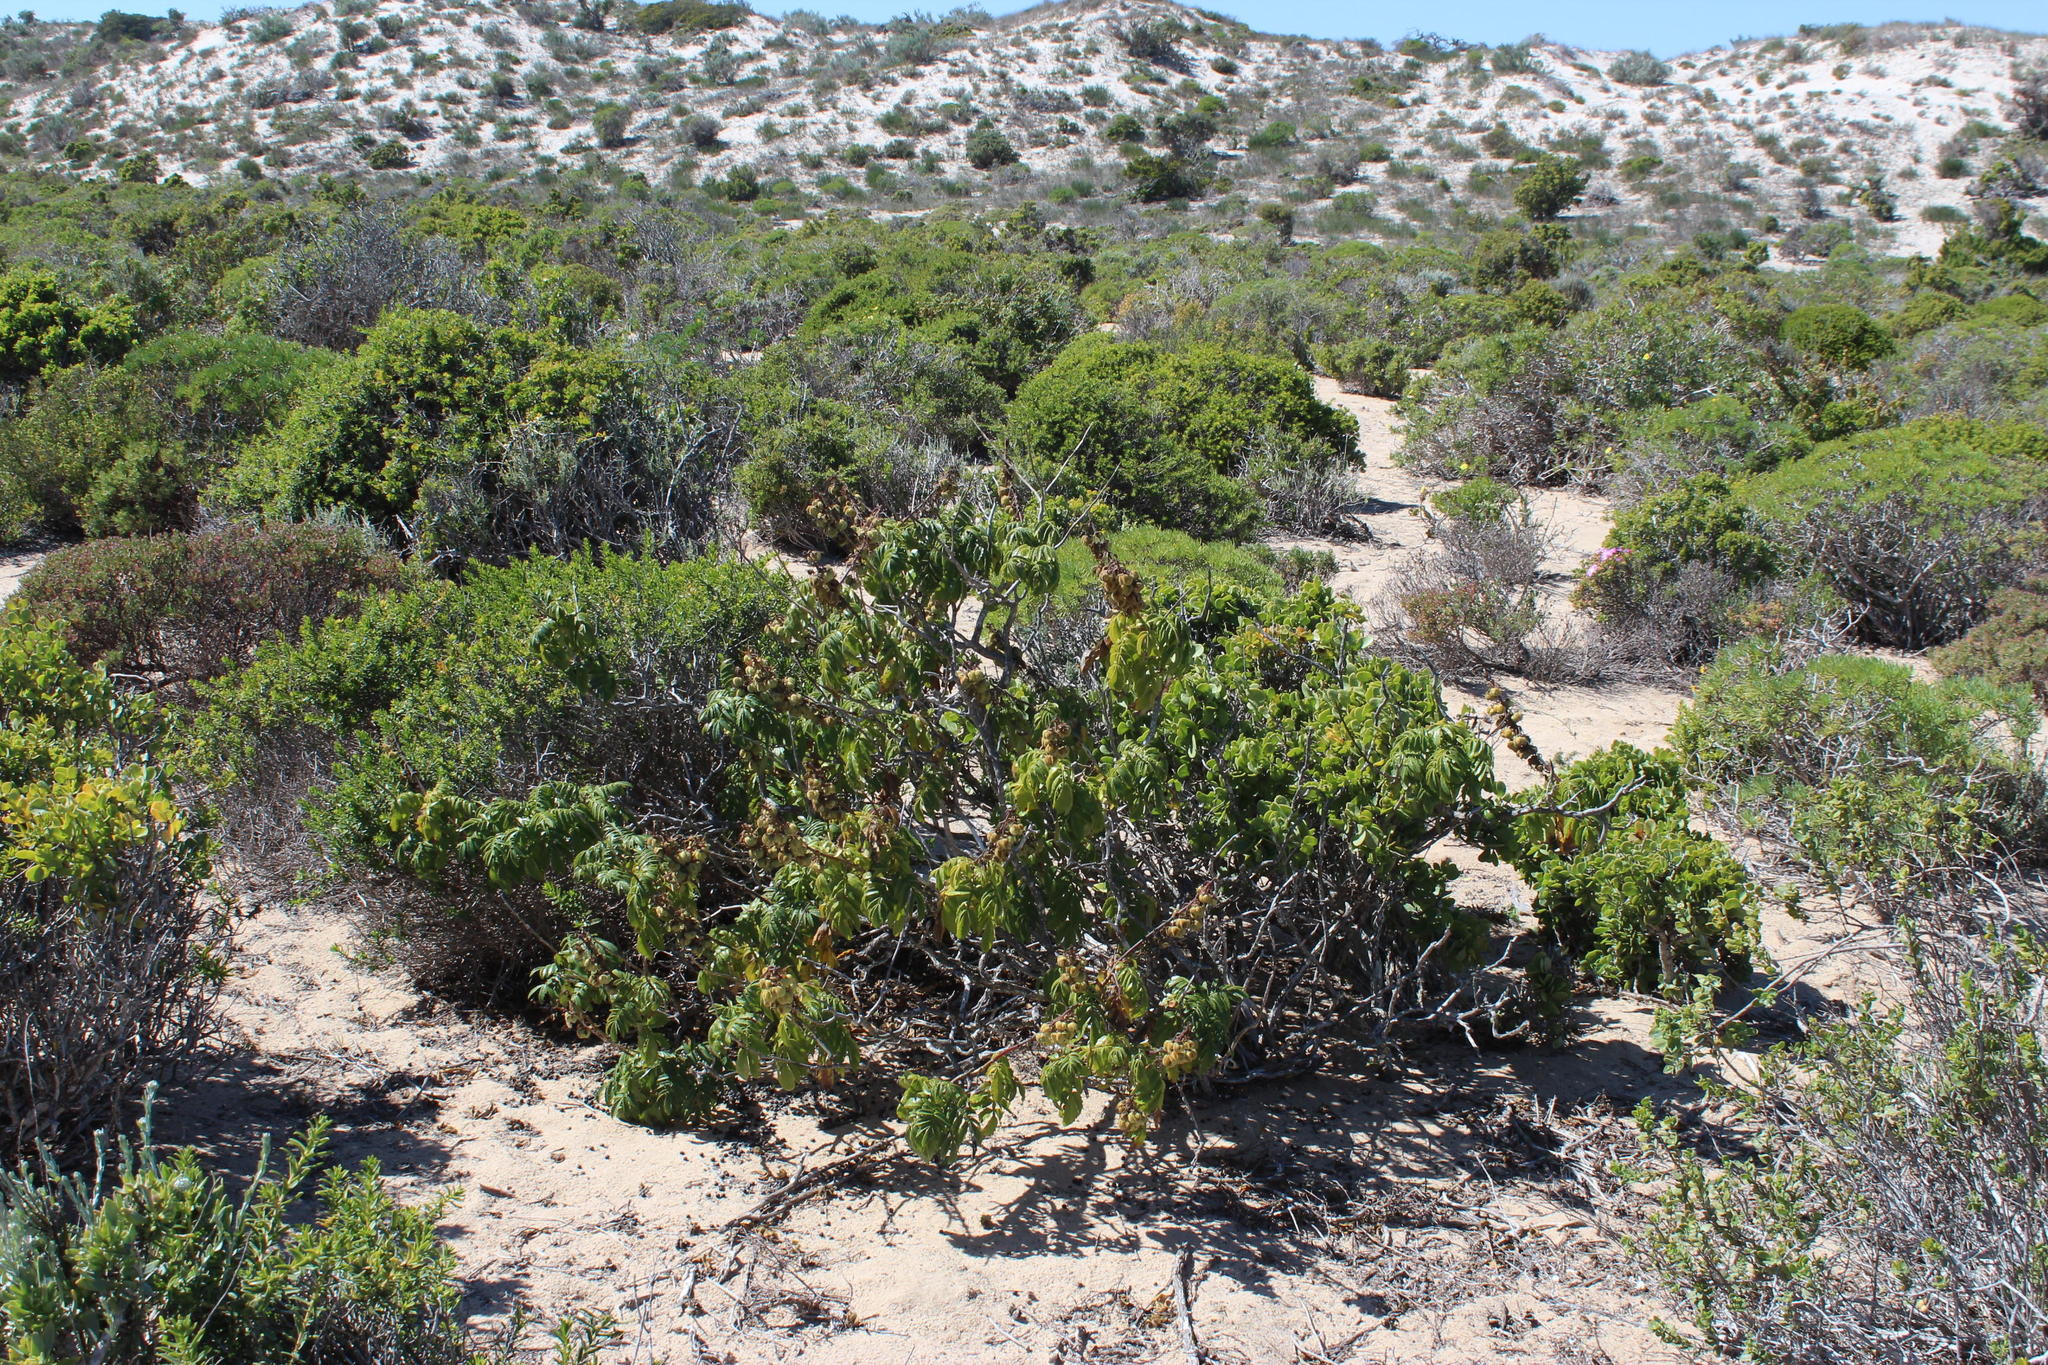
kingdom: Plantae
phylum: Tracheophyta
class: Magnoliopsida
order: Geraniales
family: Melianthaceae
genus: Melianthus
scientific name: Melianthus elongatus
